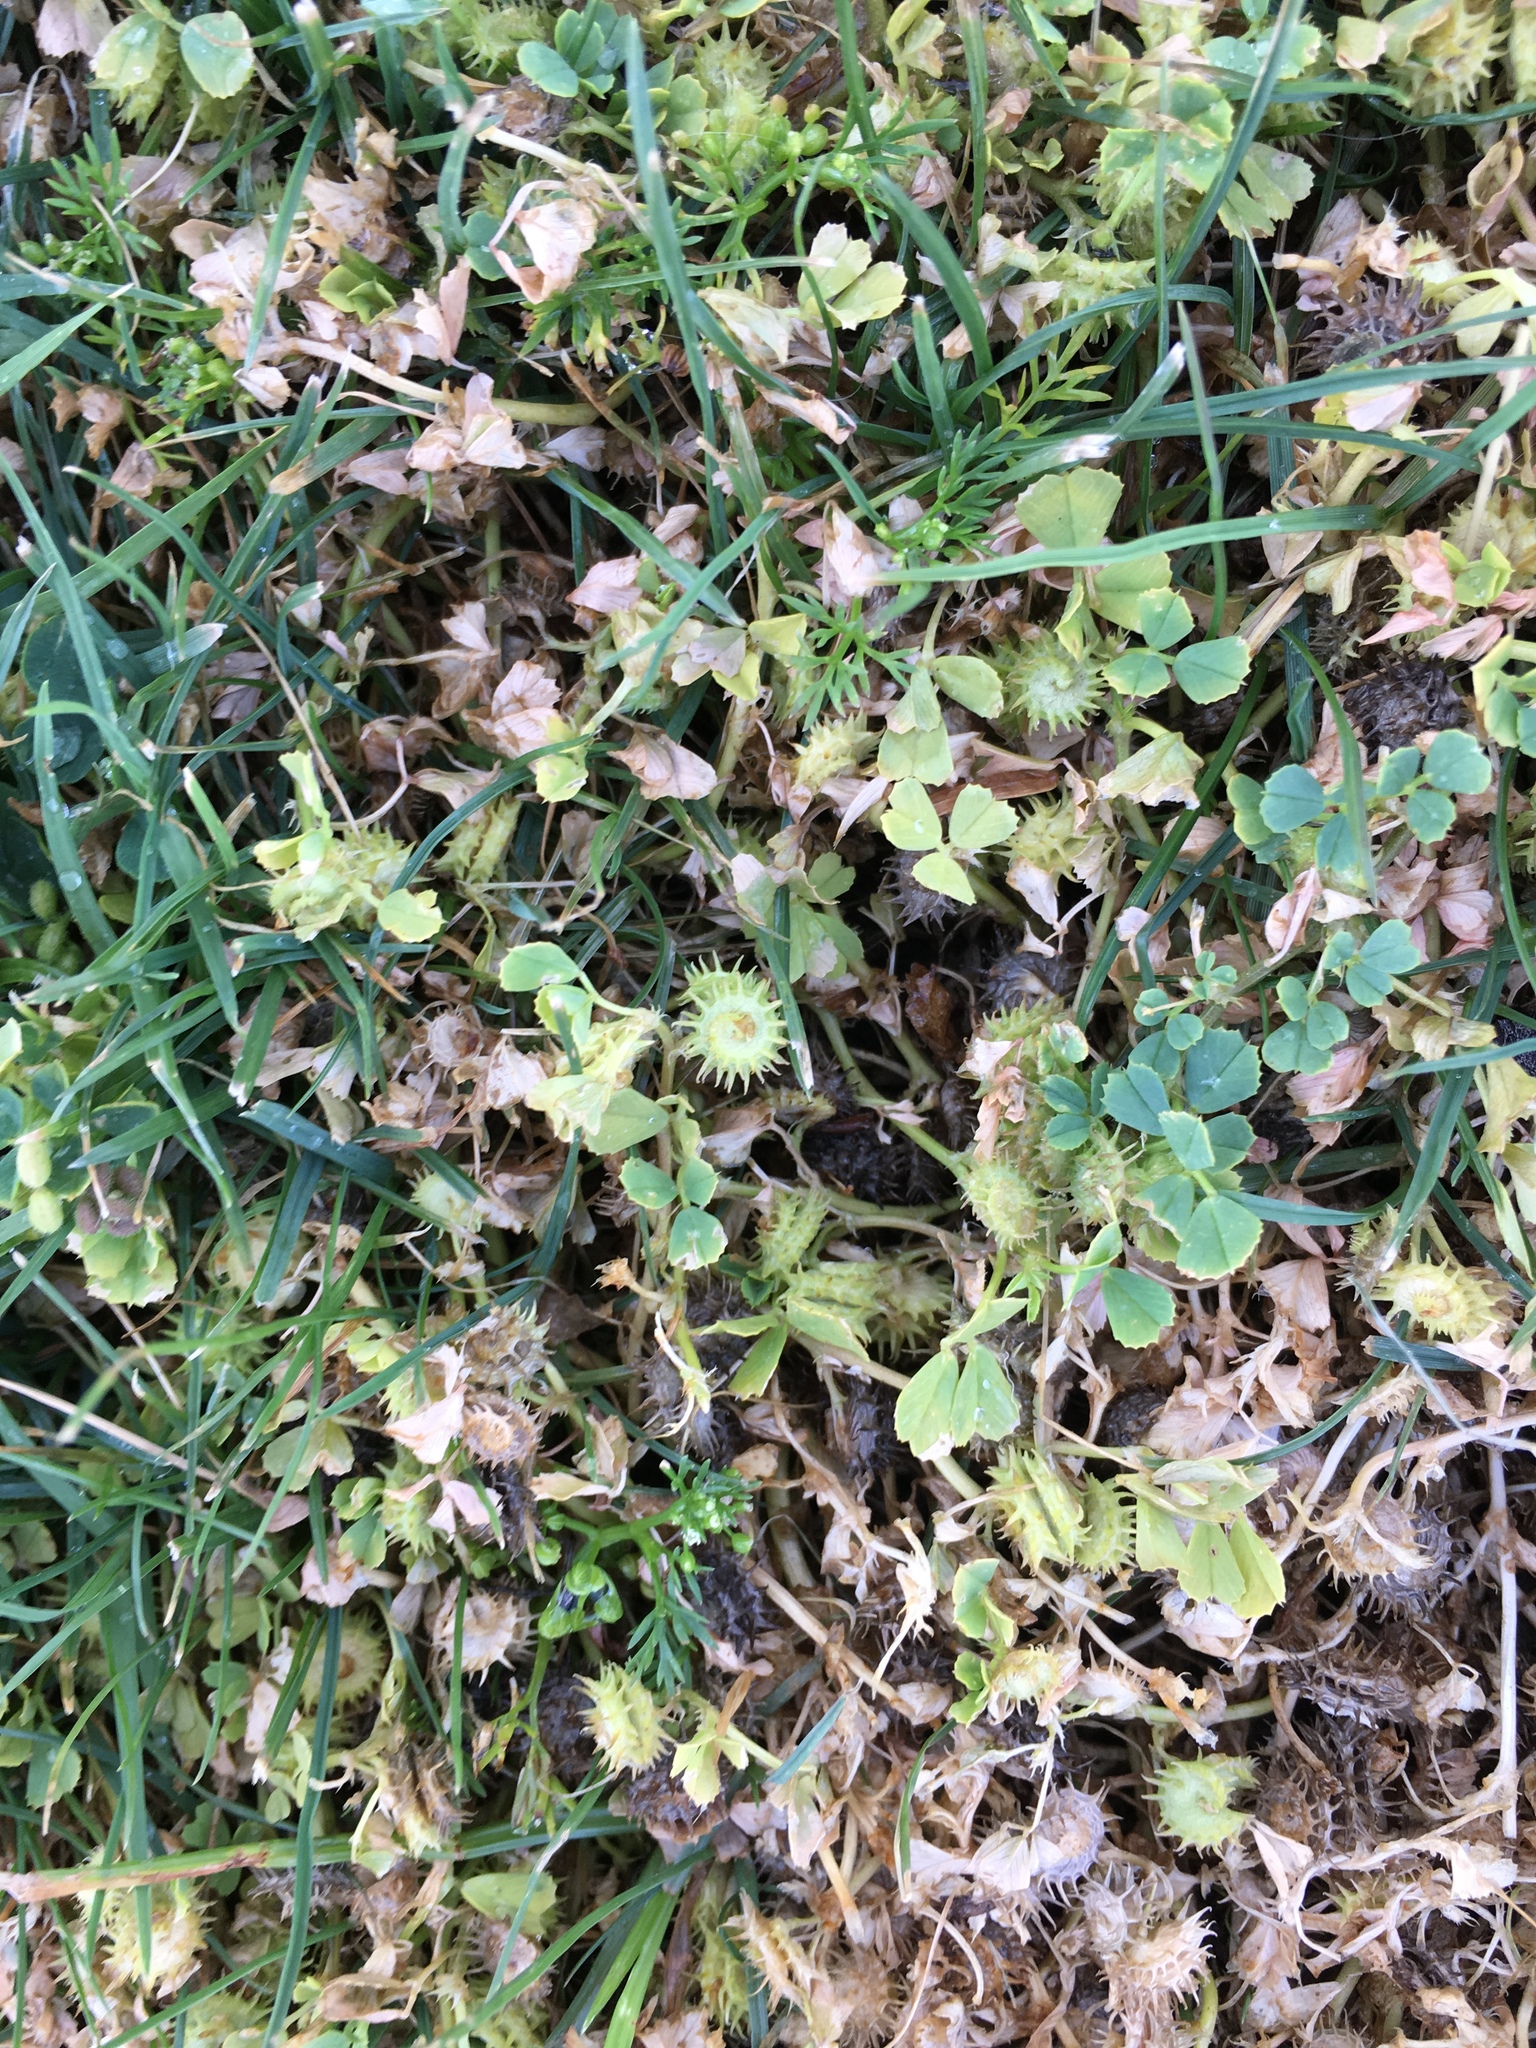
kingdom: Plantae
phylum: Tracheophyta
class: Magnoliopsida
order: Fabales
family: Fabaceae
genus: Medicago
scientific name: Medicago polymorpha
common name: Burclover
